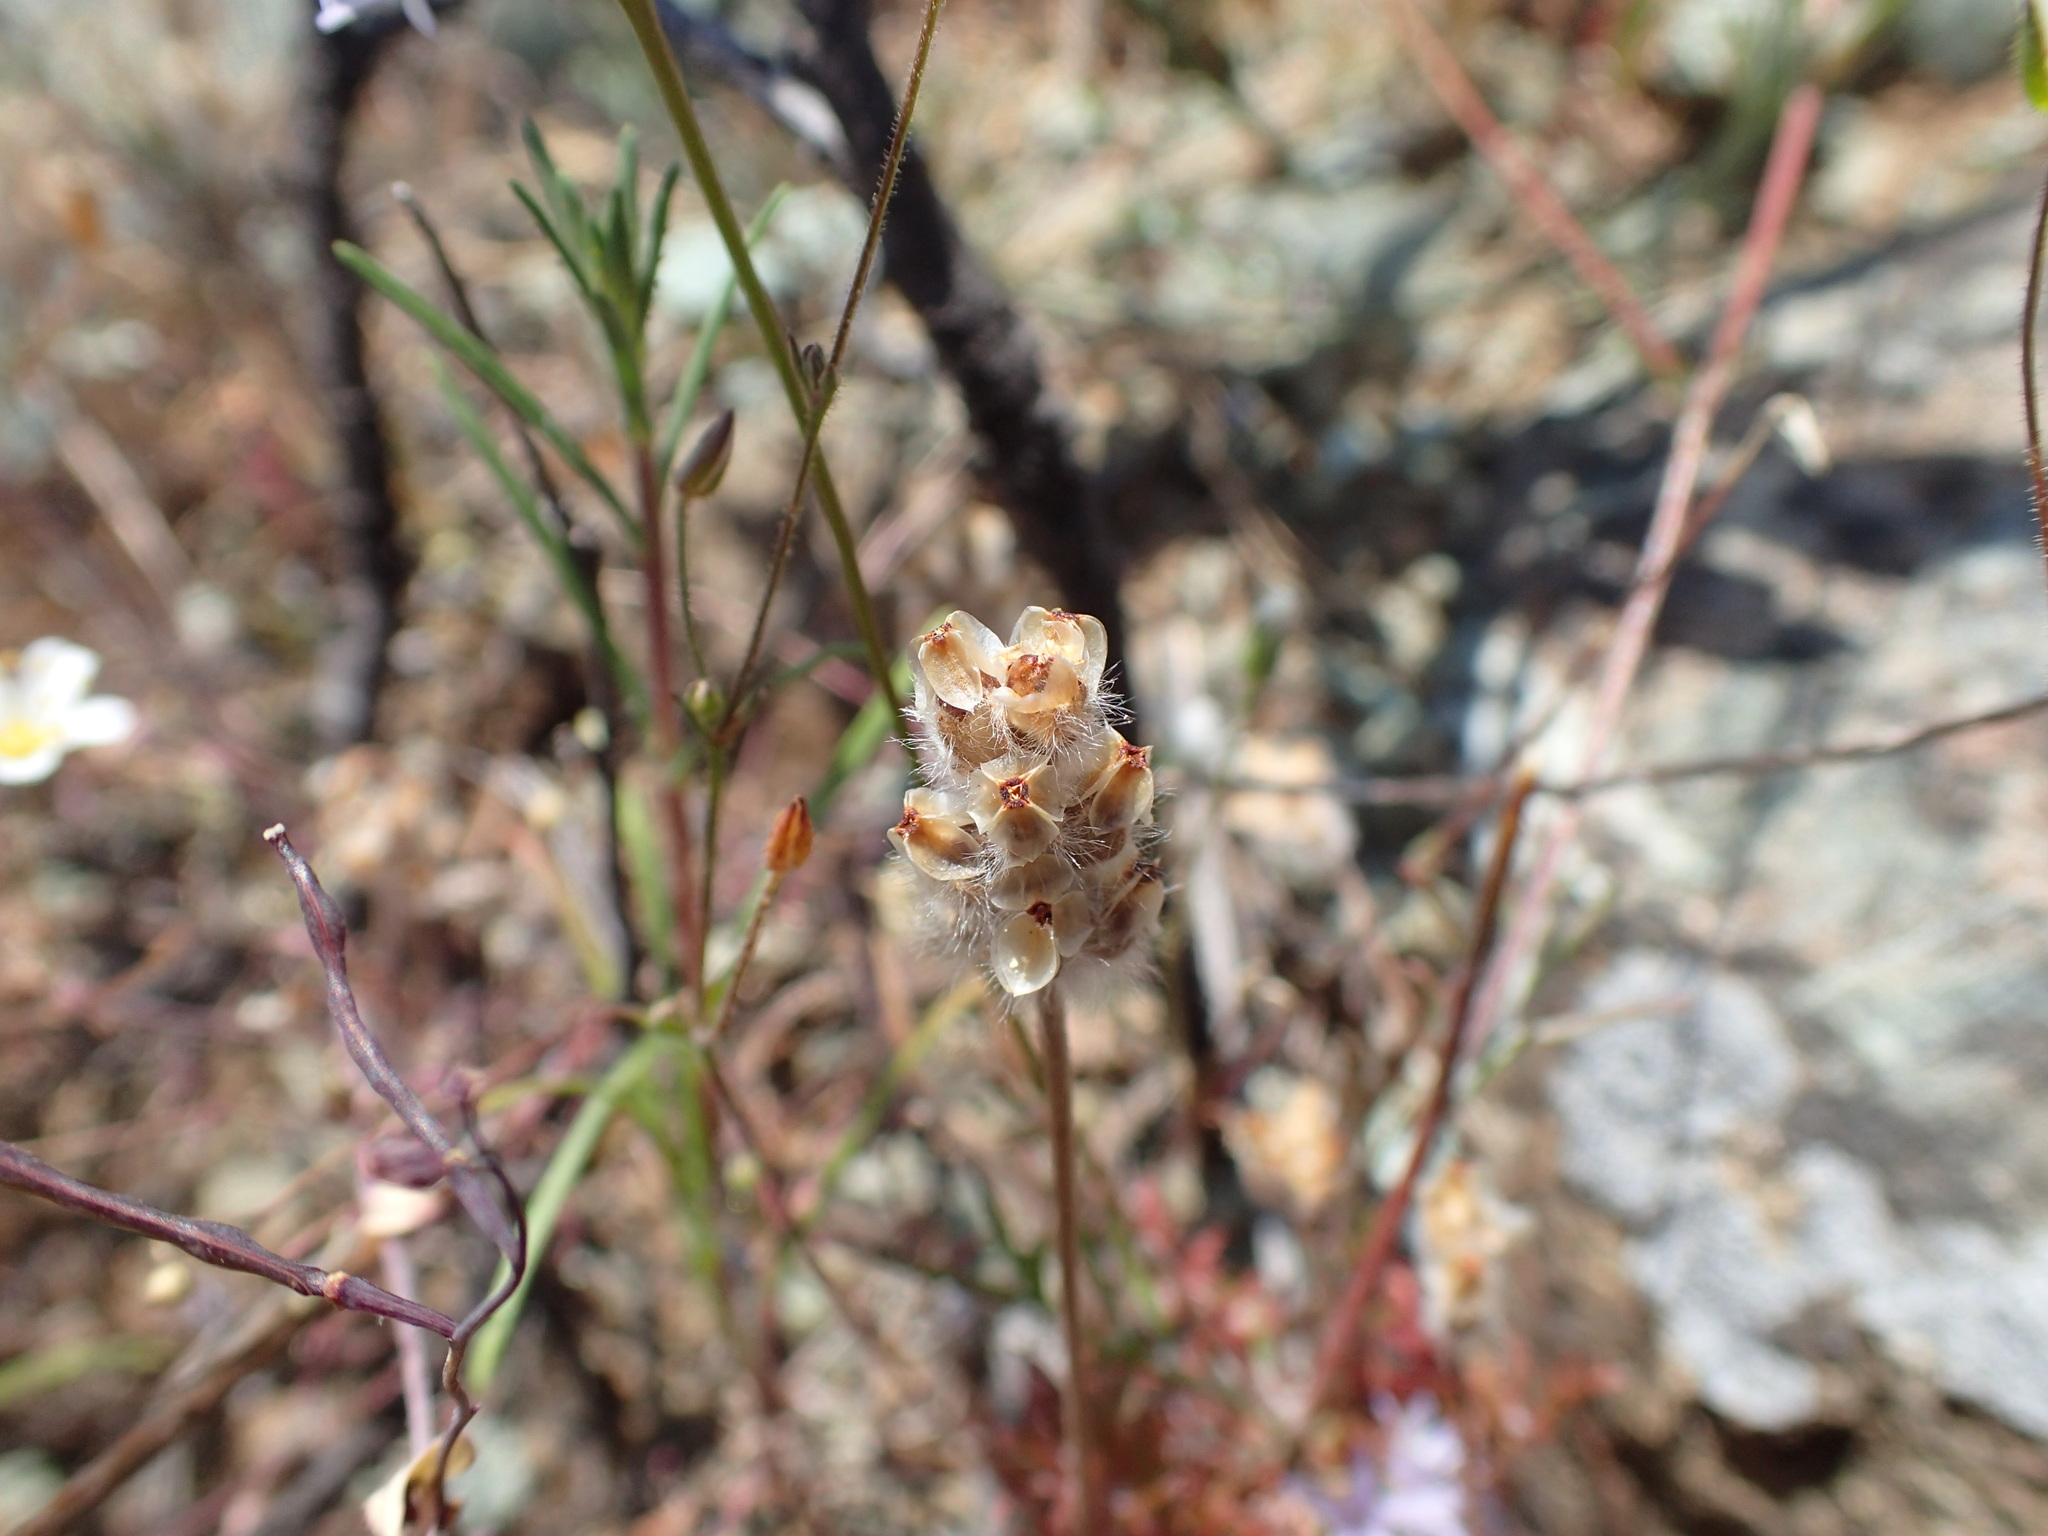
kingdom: Plantae
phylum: Tracheophyta
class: Magnoliopsida
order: Lamiales
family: Plantaginaceae
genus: Plantago
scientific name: Plantago erecta
